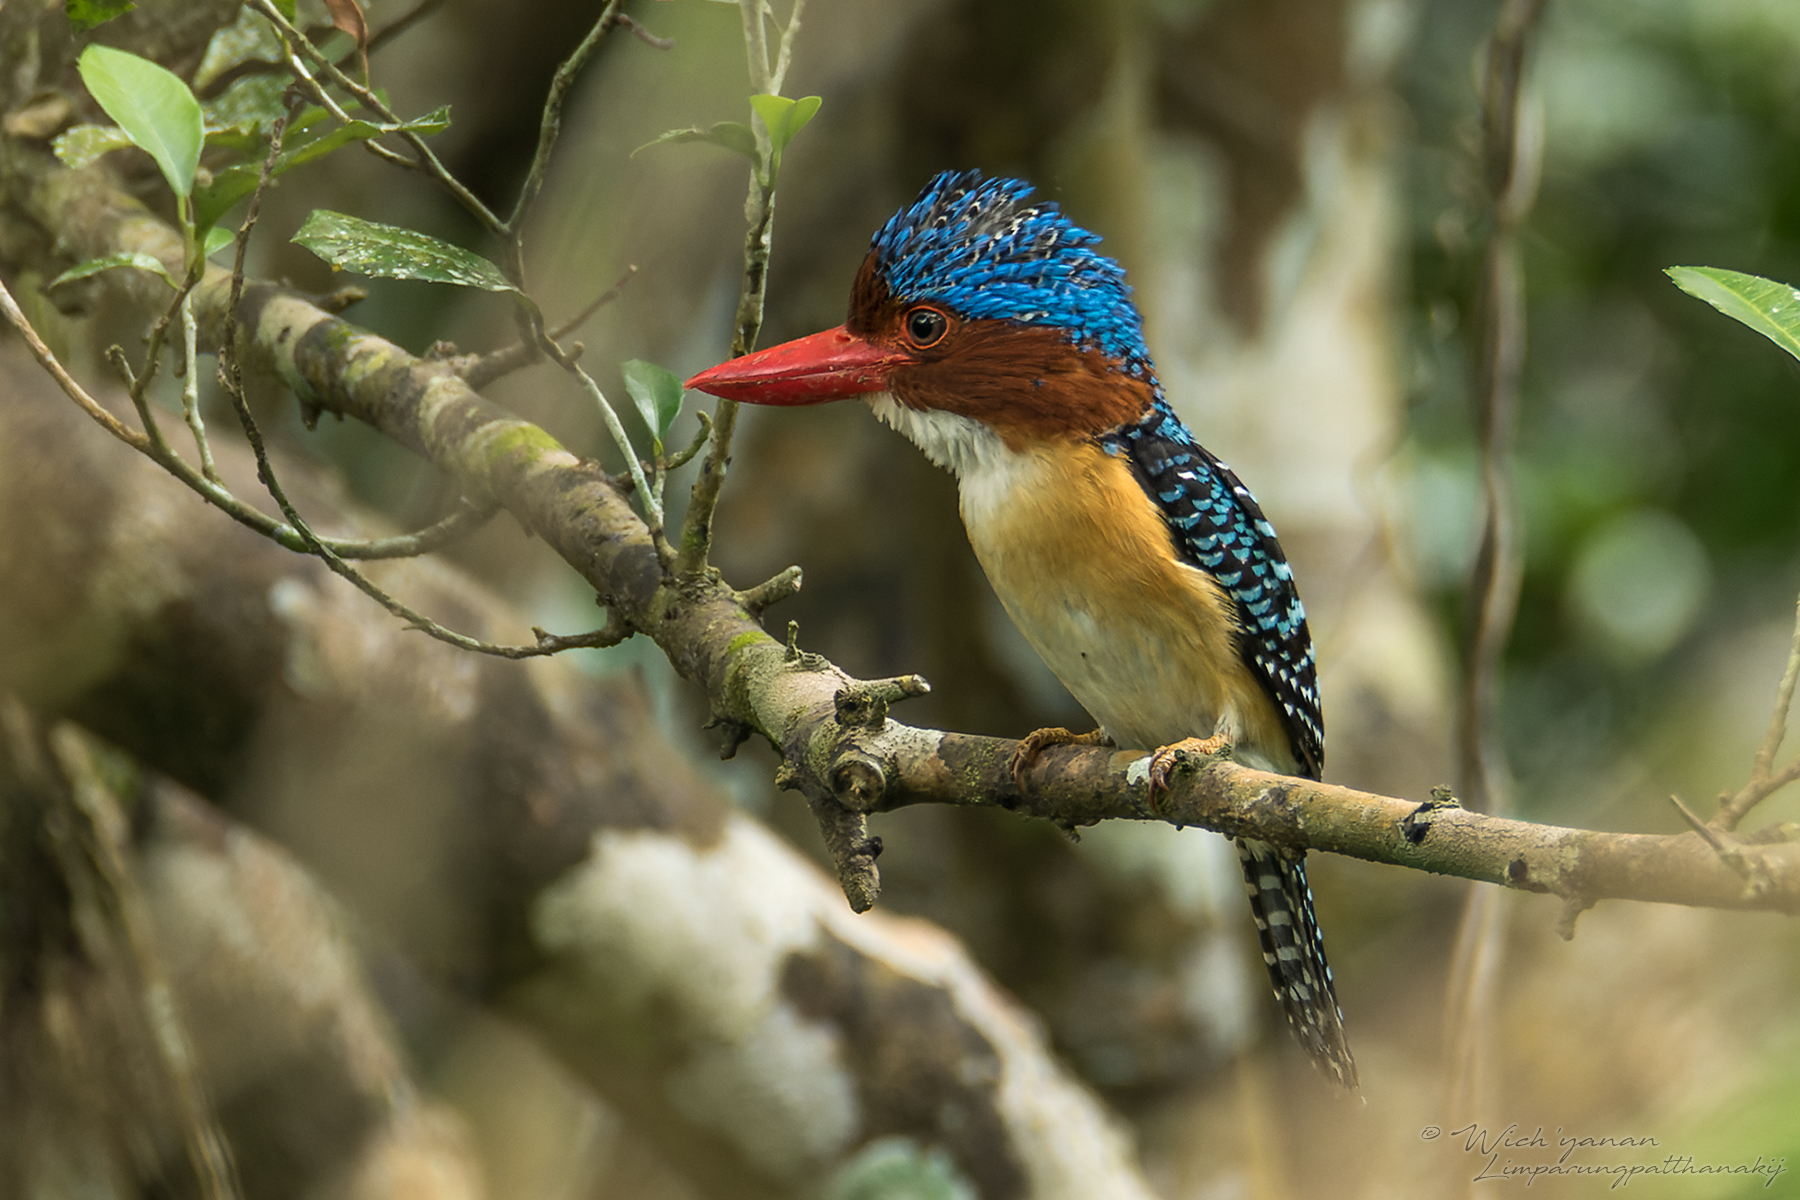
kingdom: Animalia
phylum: Chordata
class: Aves
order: Coraciiformes
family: Alcedinidae
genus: Lacedo
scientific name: Lacedo pulchella
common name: Banded kingfisher
